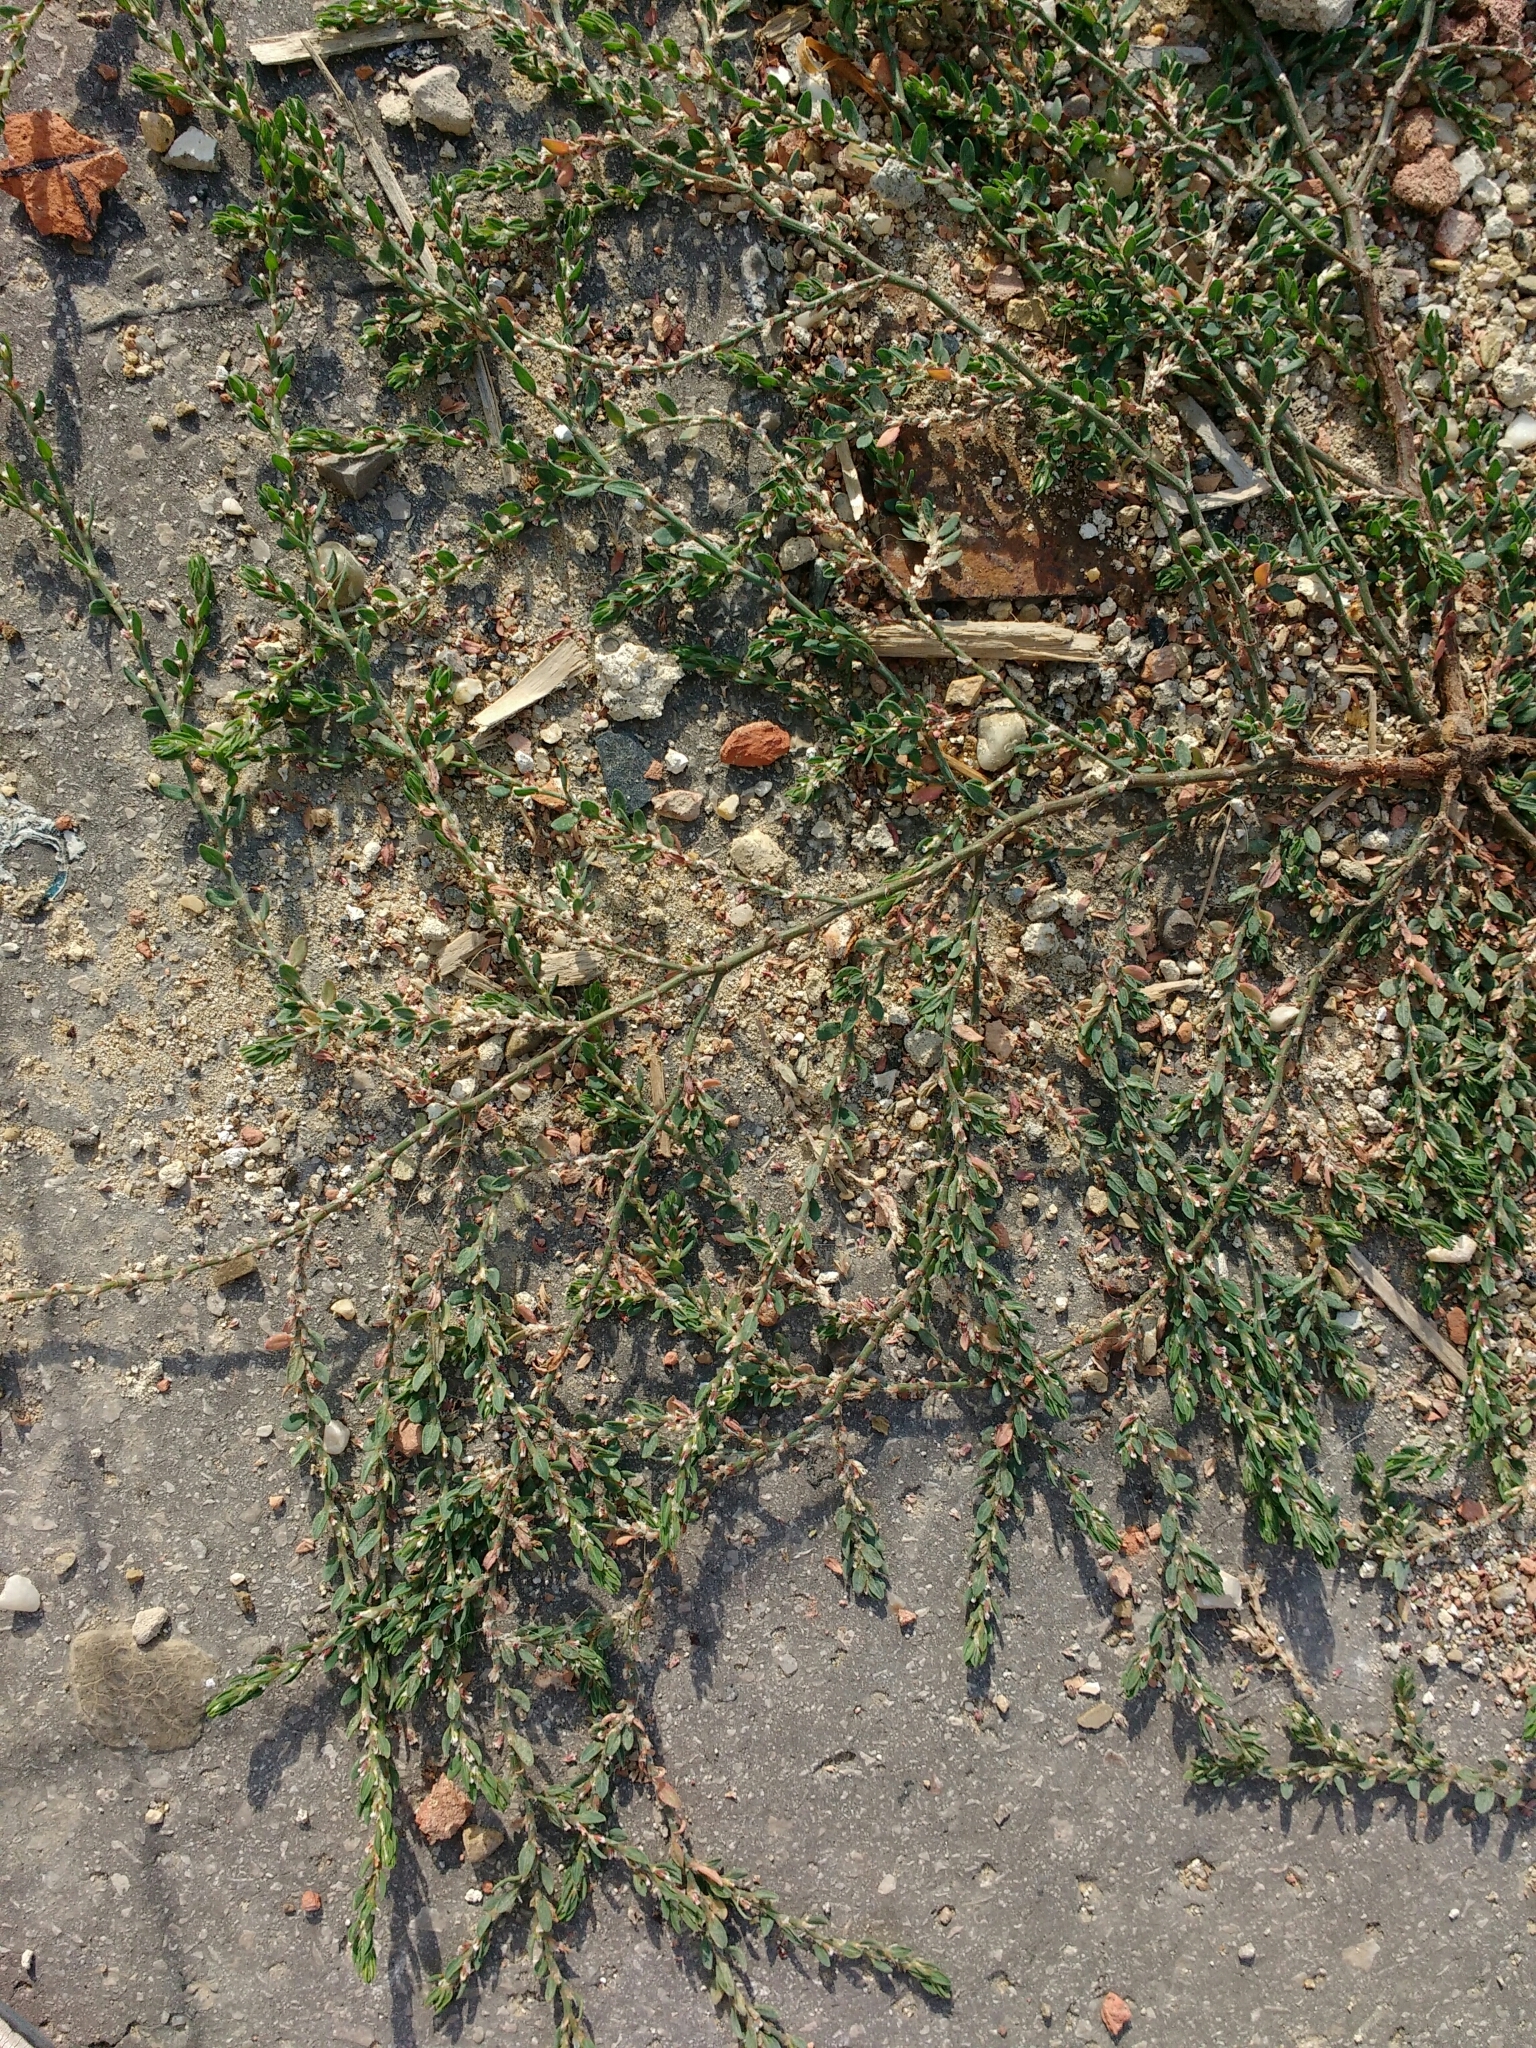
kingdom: Plantae
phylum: Tracheophyta
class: Magnoliopsida
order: Caryophyllales
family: Polygonaceae
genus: Polygonum
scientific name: Polygonum arenastrum
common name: Equal-leaved knotgrass
